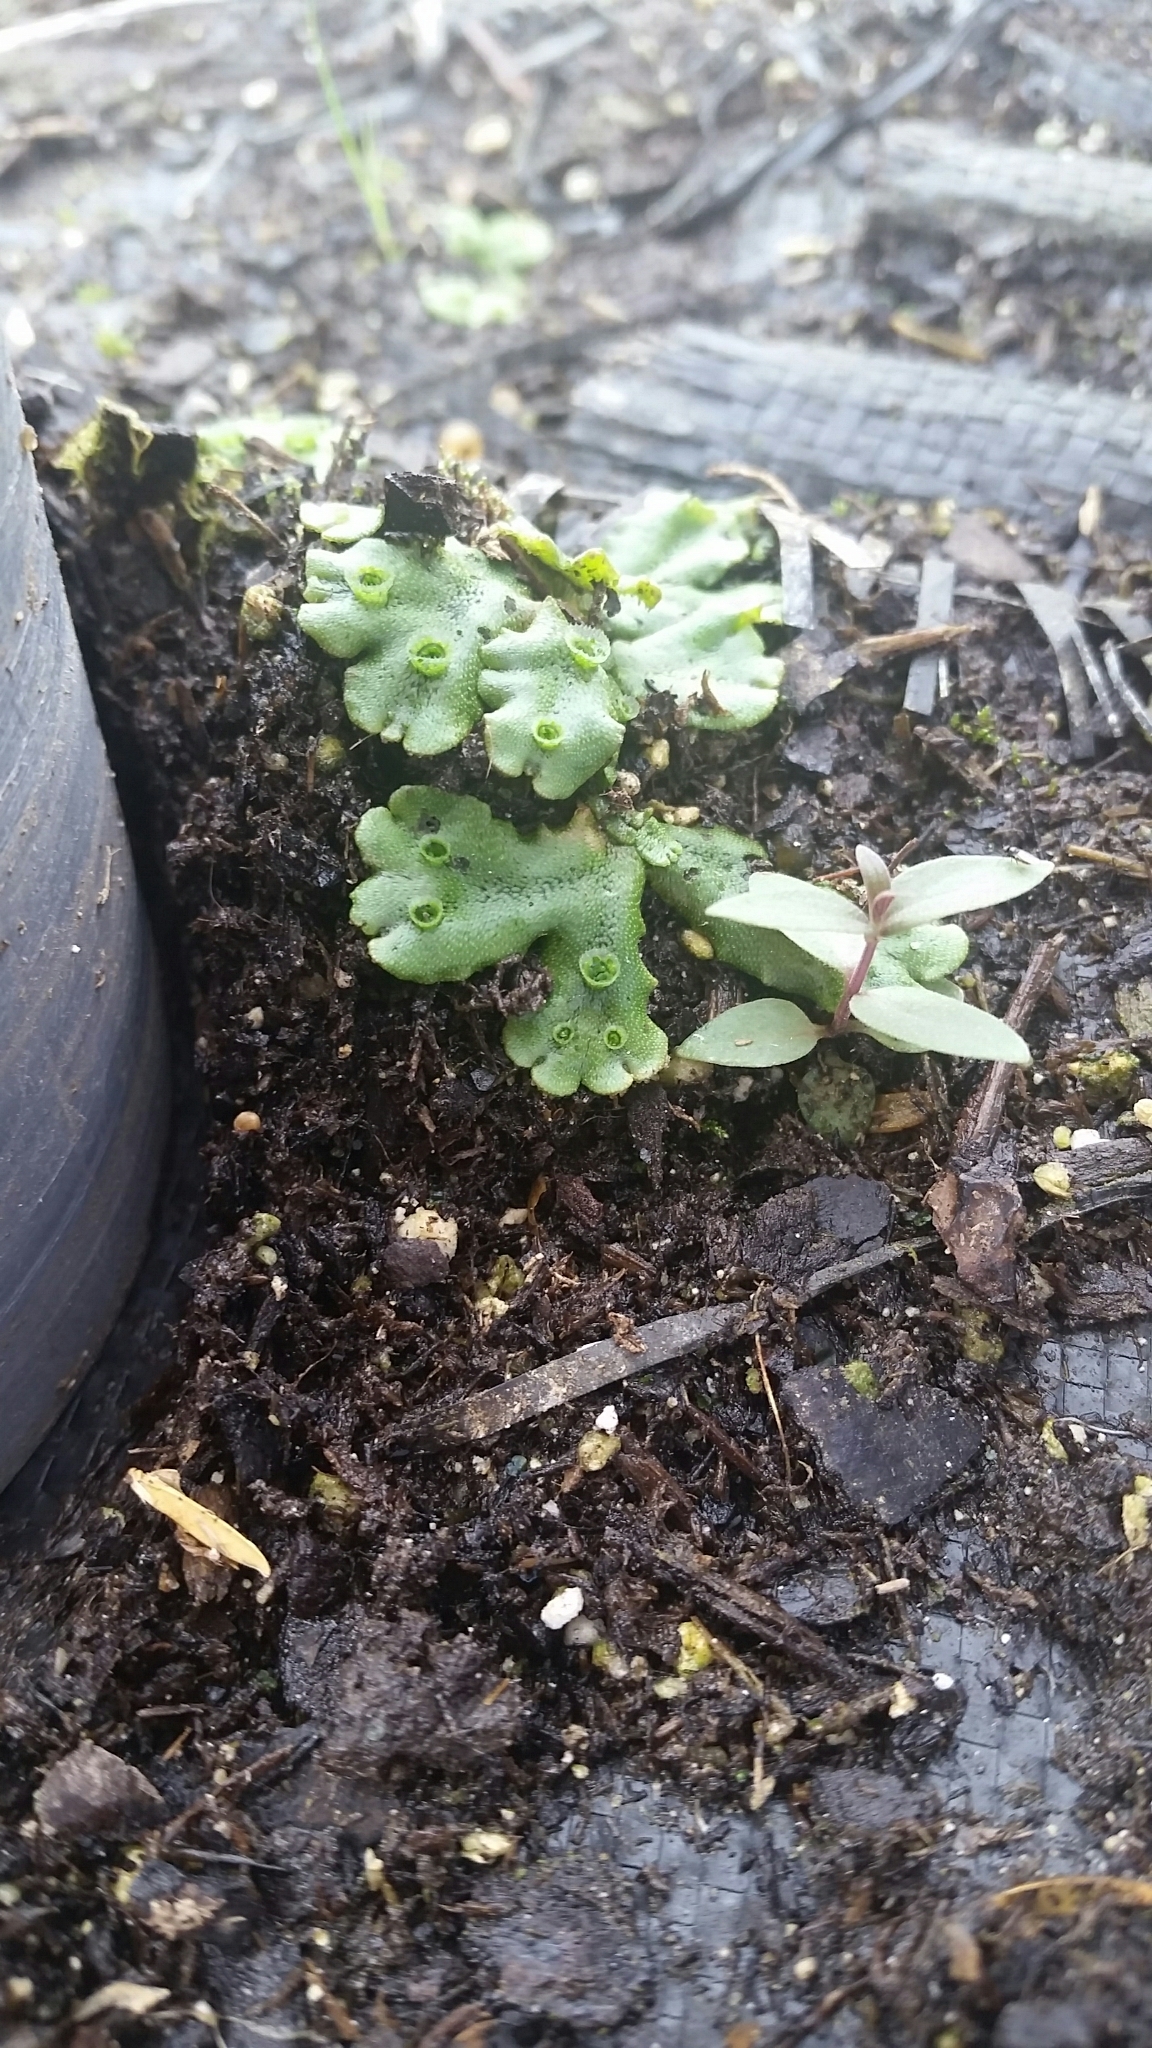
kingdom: Plantae
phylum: Marchantiophyta
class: Marchantiopsida
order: Marchantiales
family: Marchantiaceae
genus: Marchantia
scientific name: Marchantia polymorpha
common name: Common liverwort
